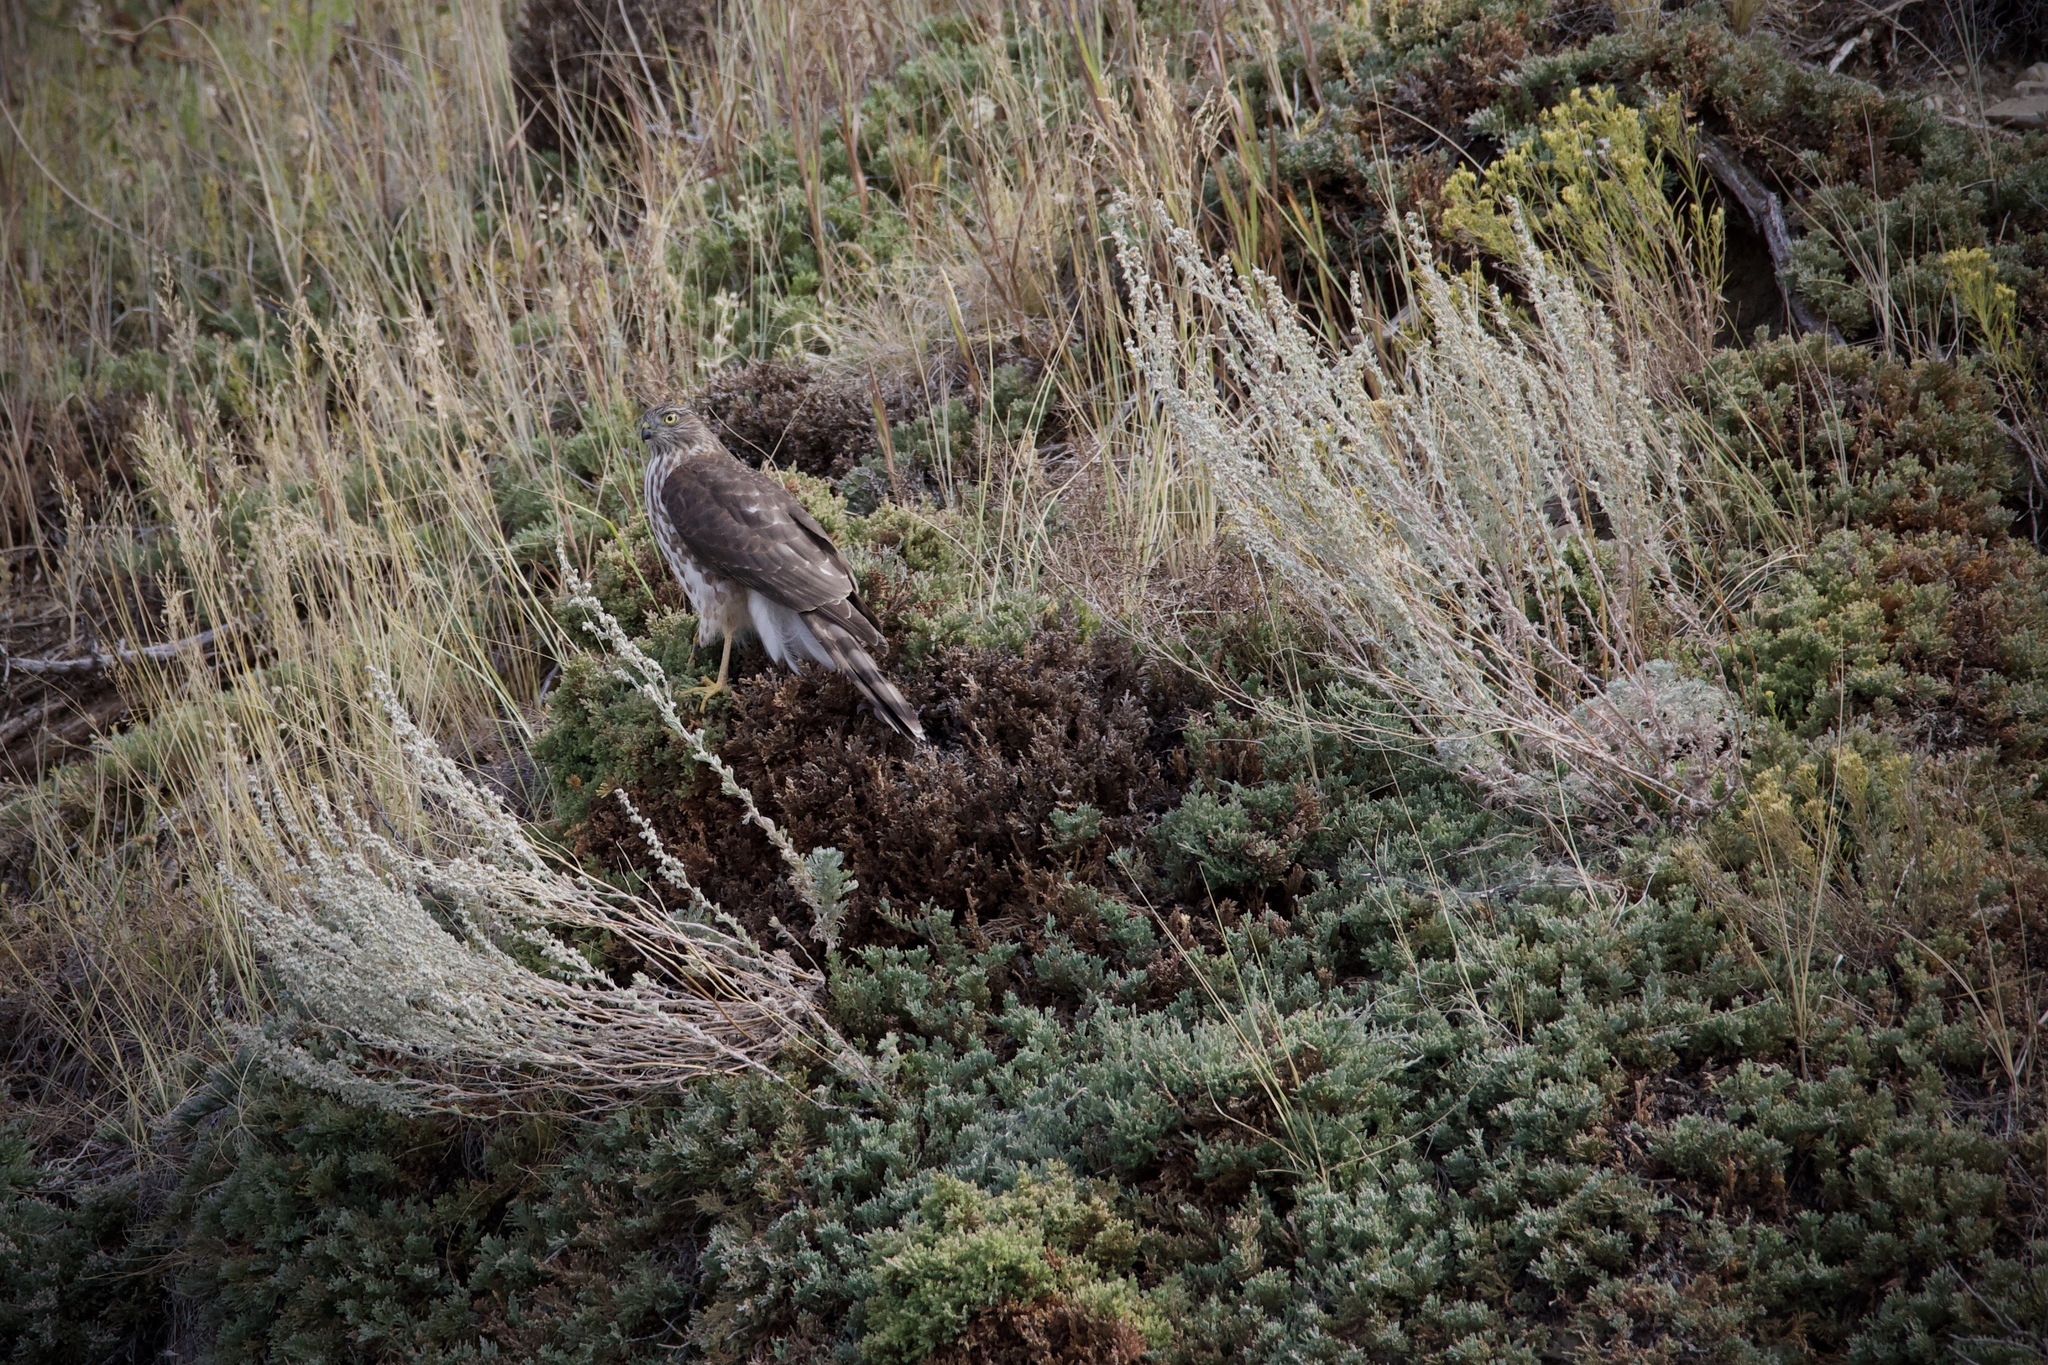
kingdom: Animalia
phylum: Chordata
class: Aves
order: Accipitriformes
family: Accipitridae
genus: Accipiter
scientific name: Accipiter striatus
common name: Sharp-shinned hawk
